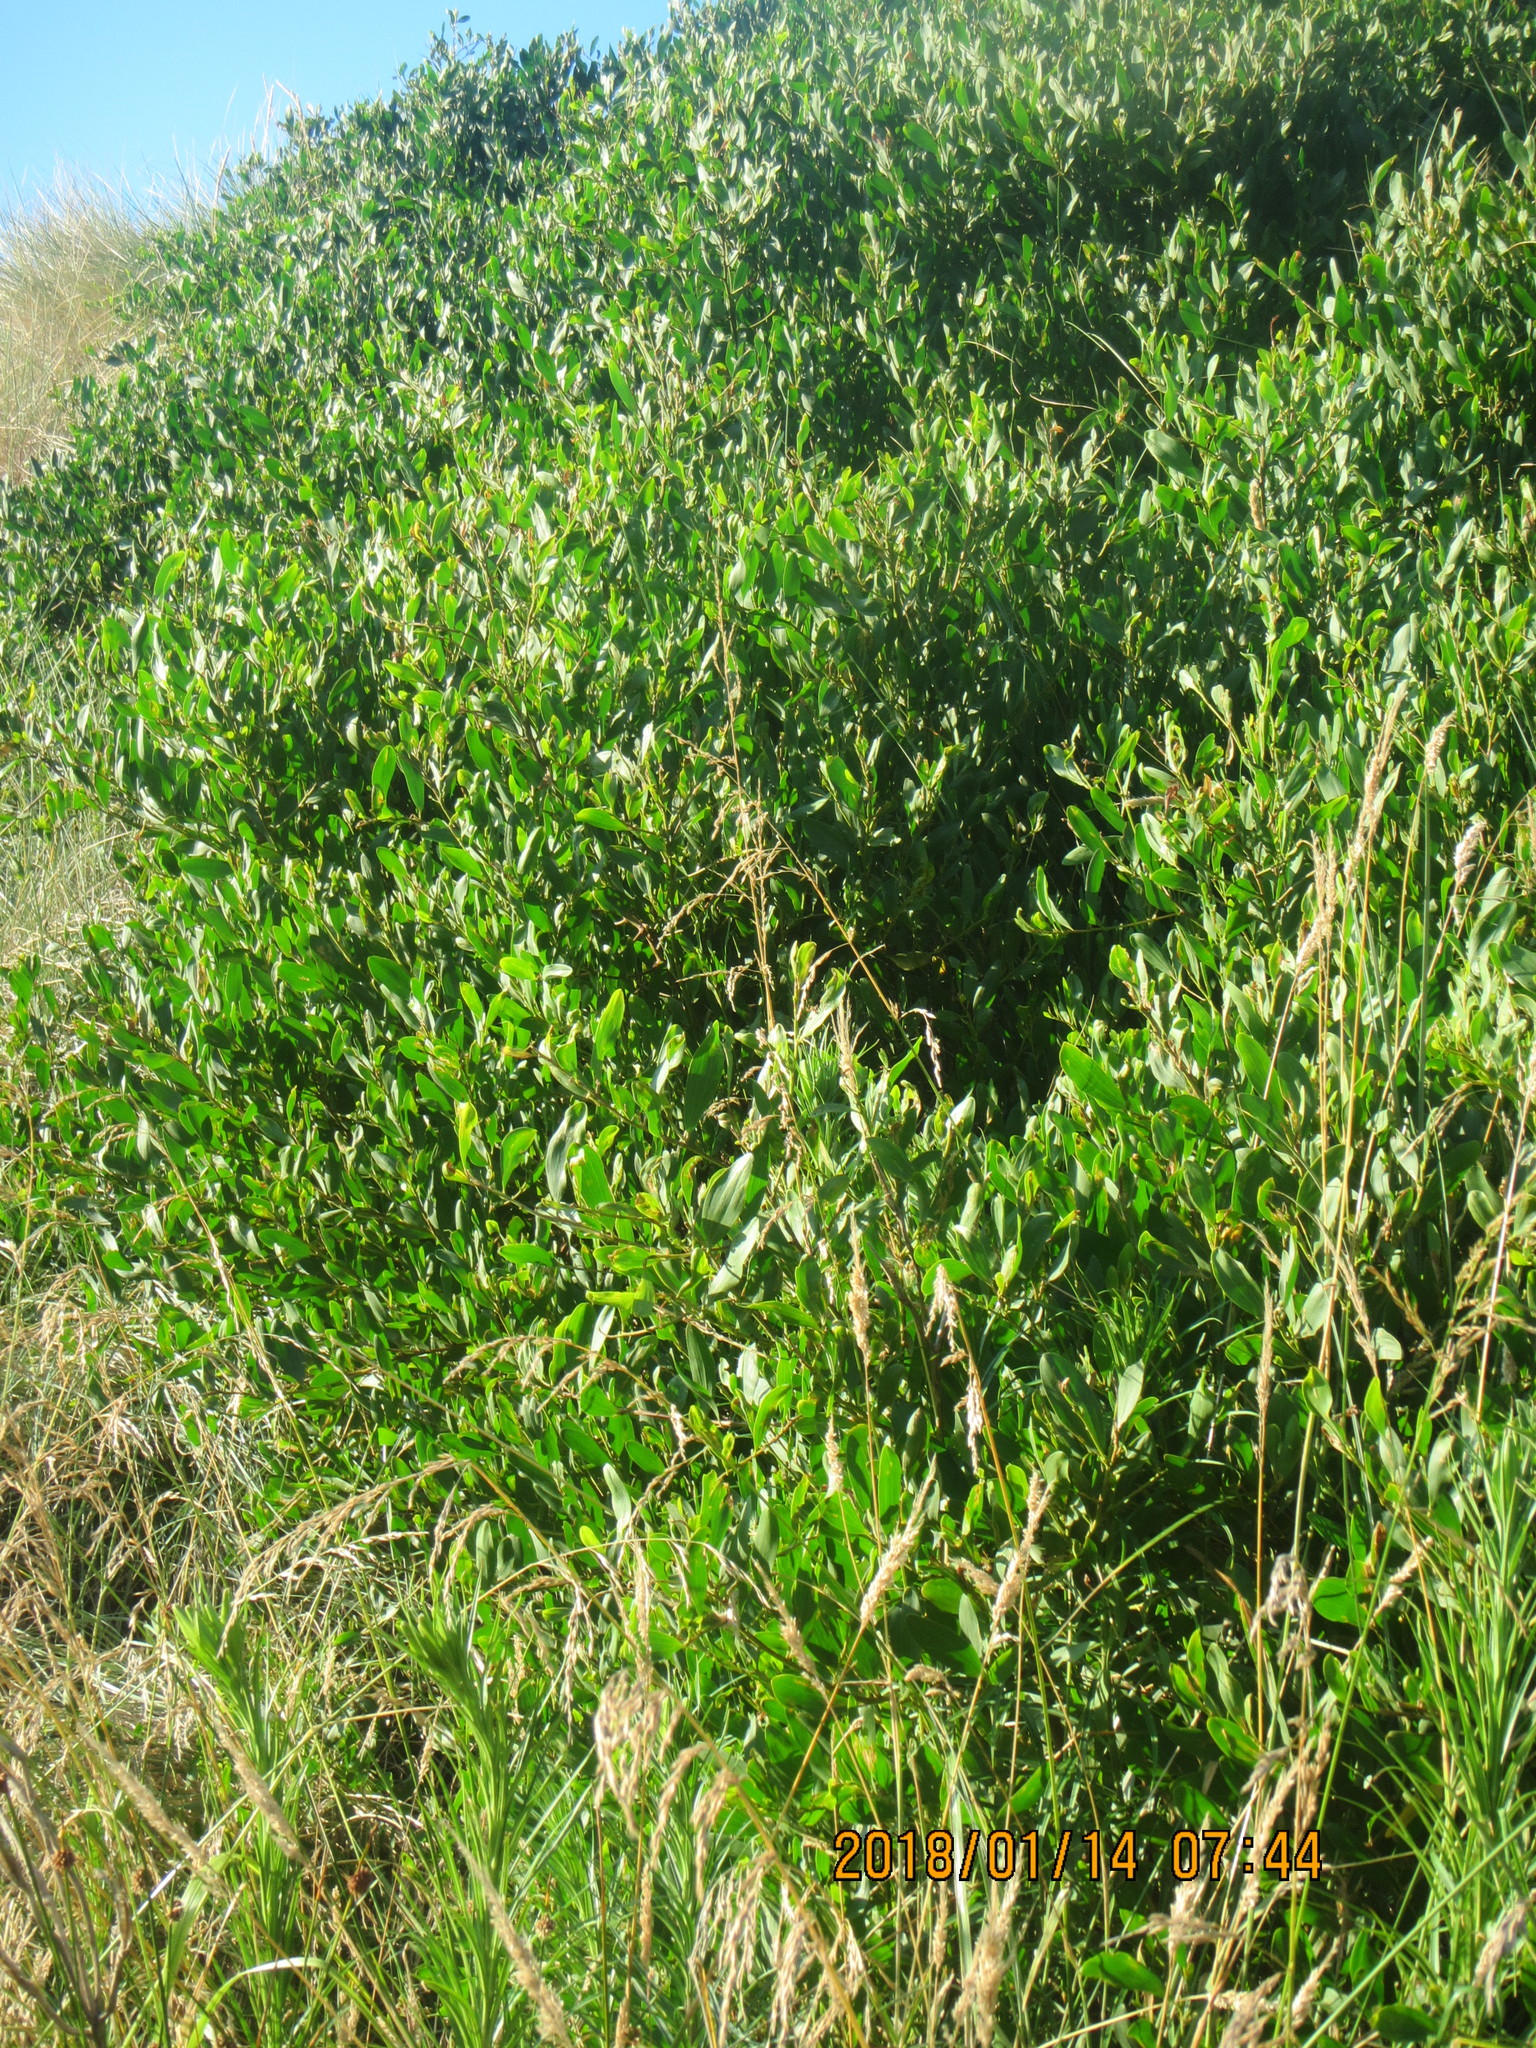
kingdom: Plantae
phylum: Tracheophyta
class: Magnoliopsida
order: Fabales
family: Fabaceae
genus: Acacia
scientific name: Acacia longifolia
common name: Sydney golden wattle
